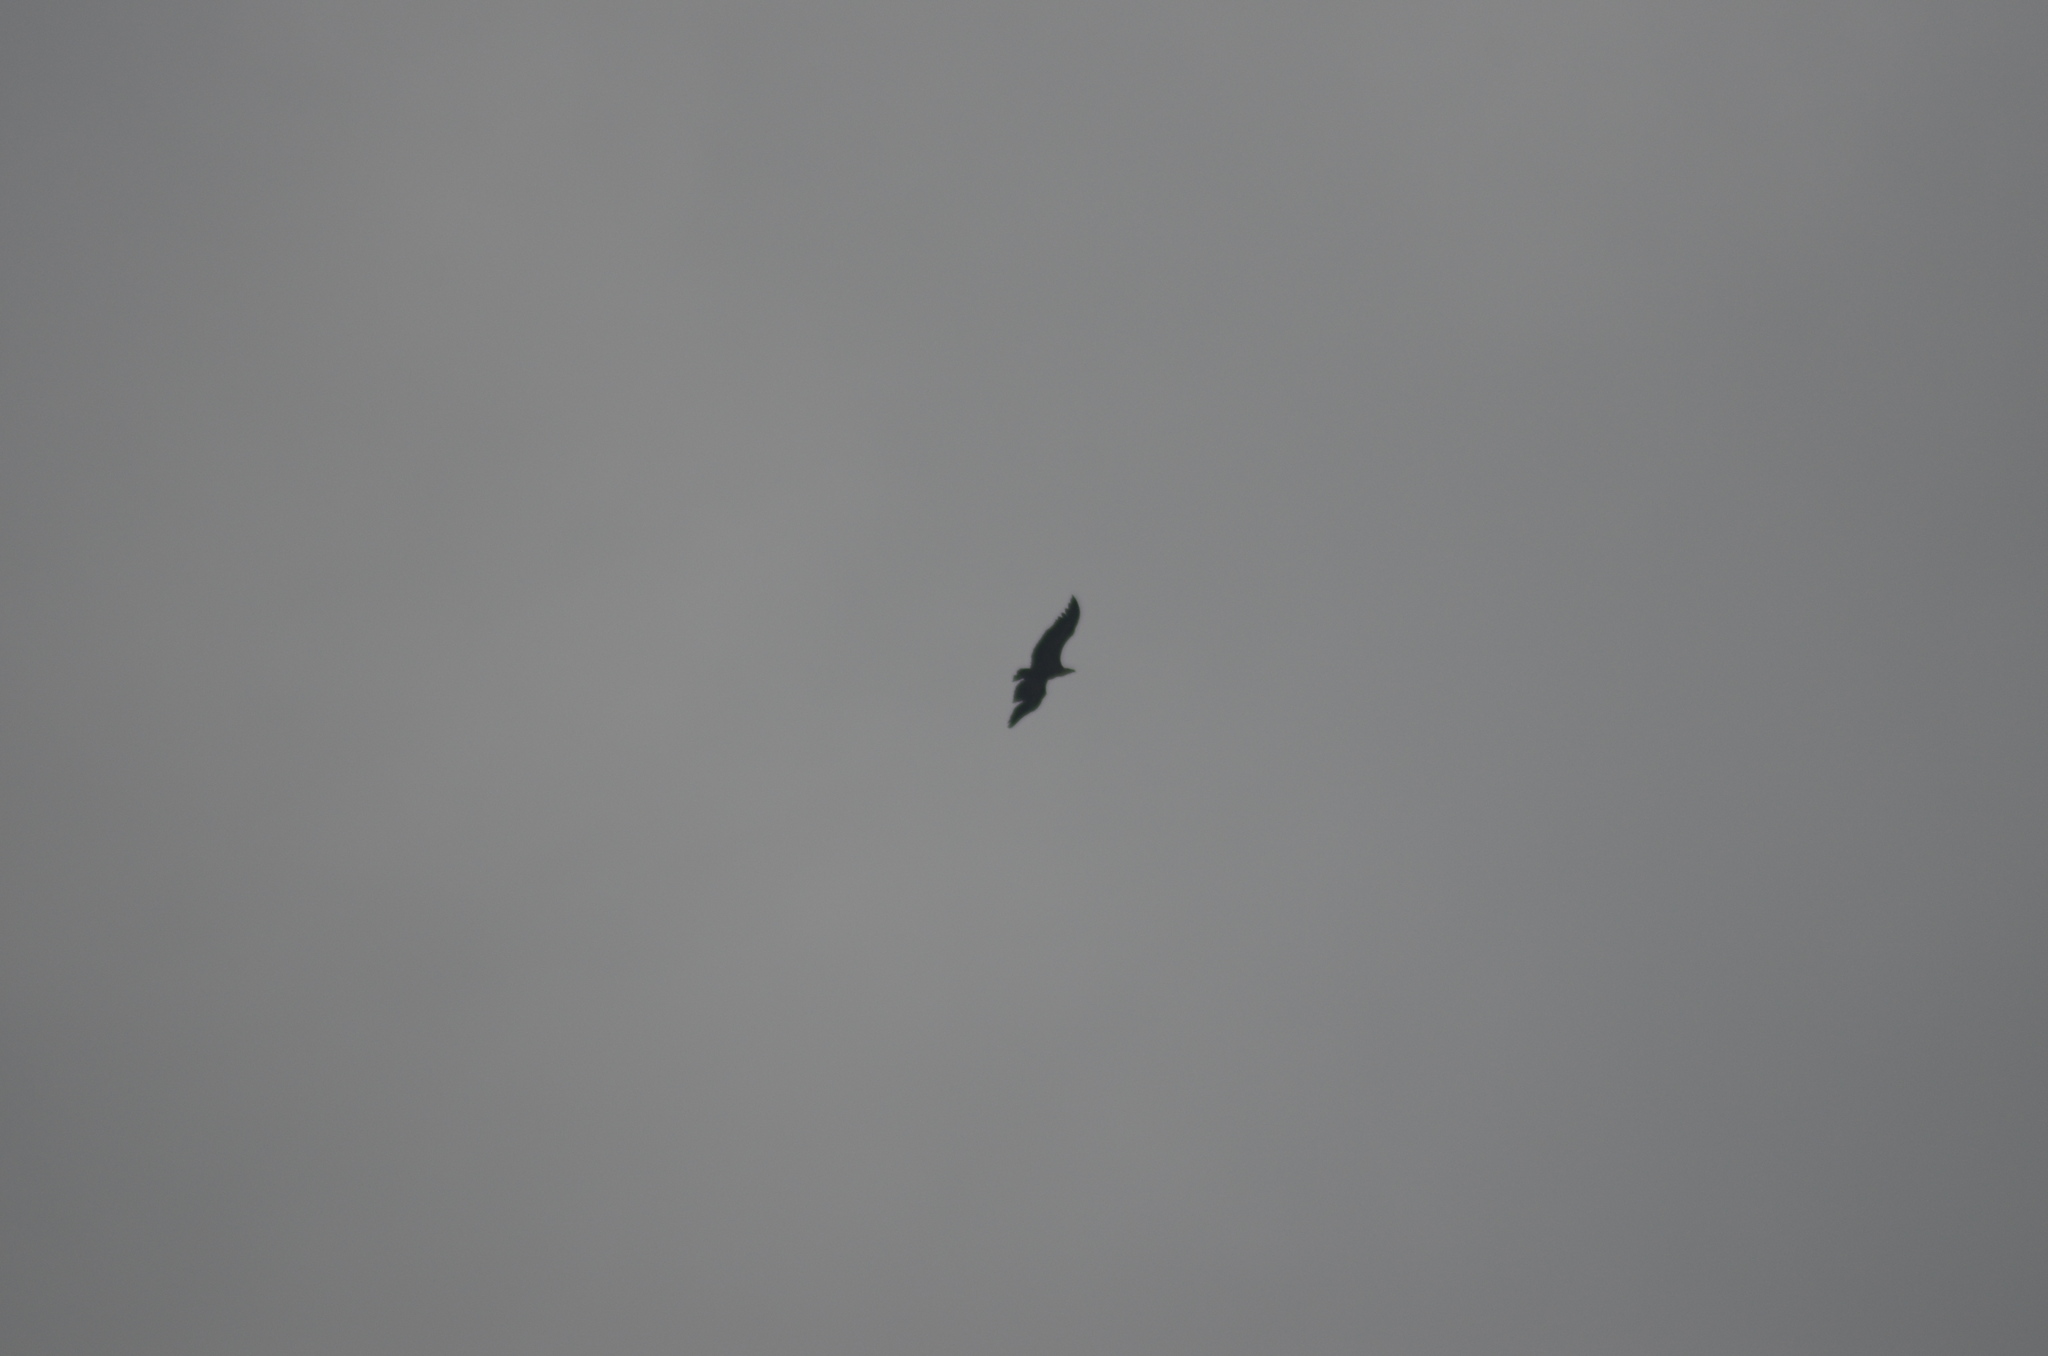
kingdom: Animalia
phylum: Chordata
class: Aves
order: Accipitriformes
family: Accipitridae
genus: Gyps
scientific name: Gyps fulvus
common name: Griffon vulture
